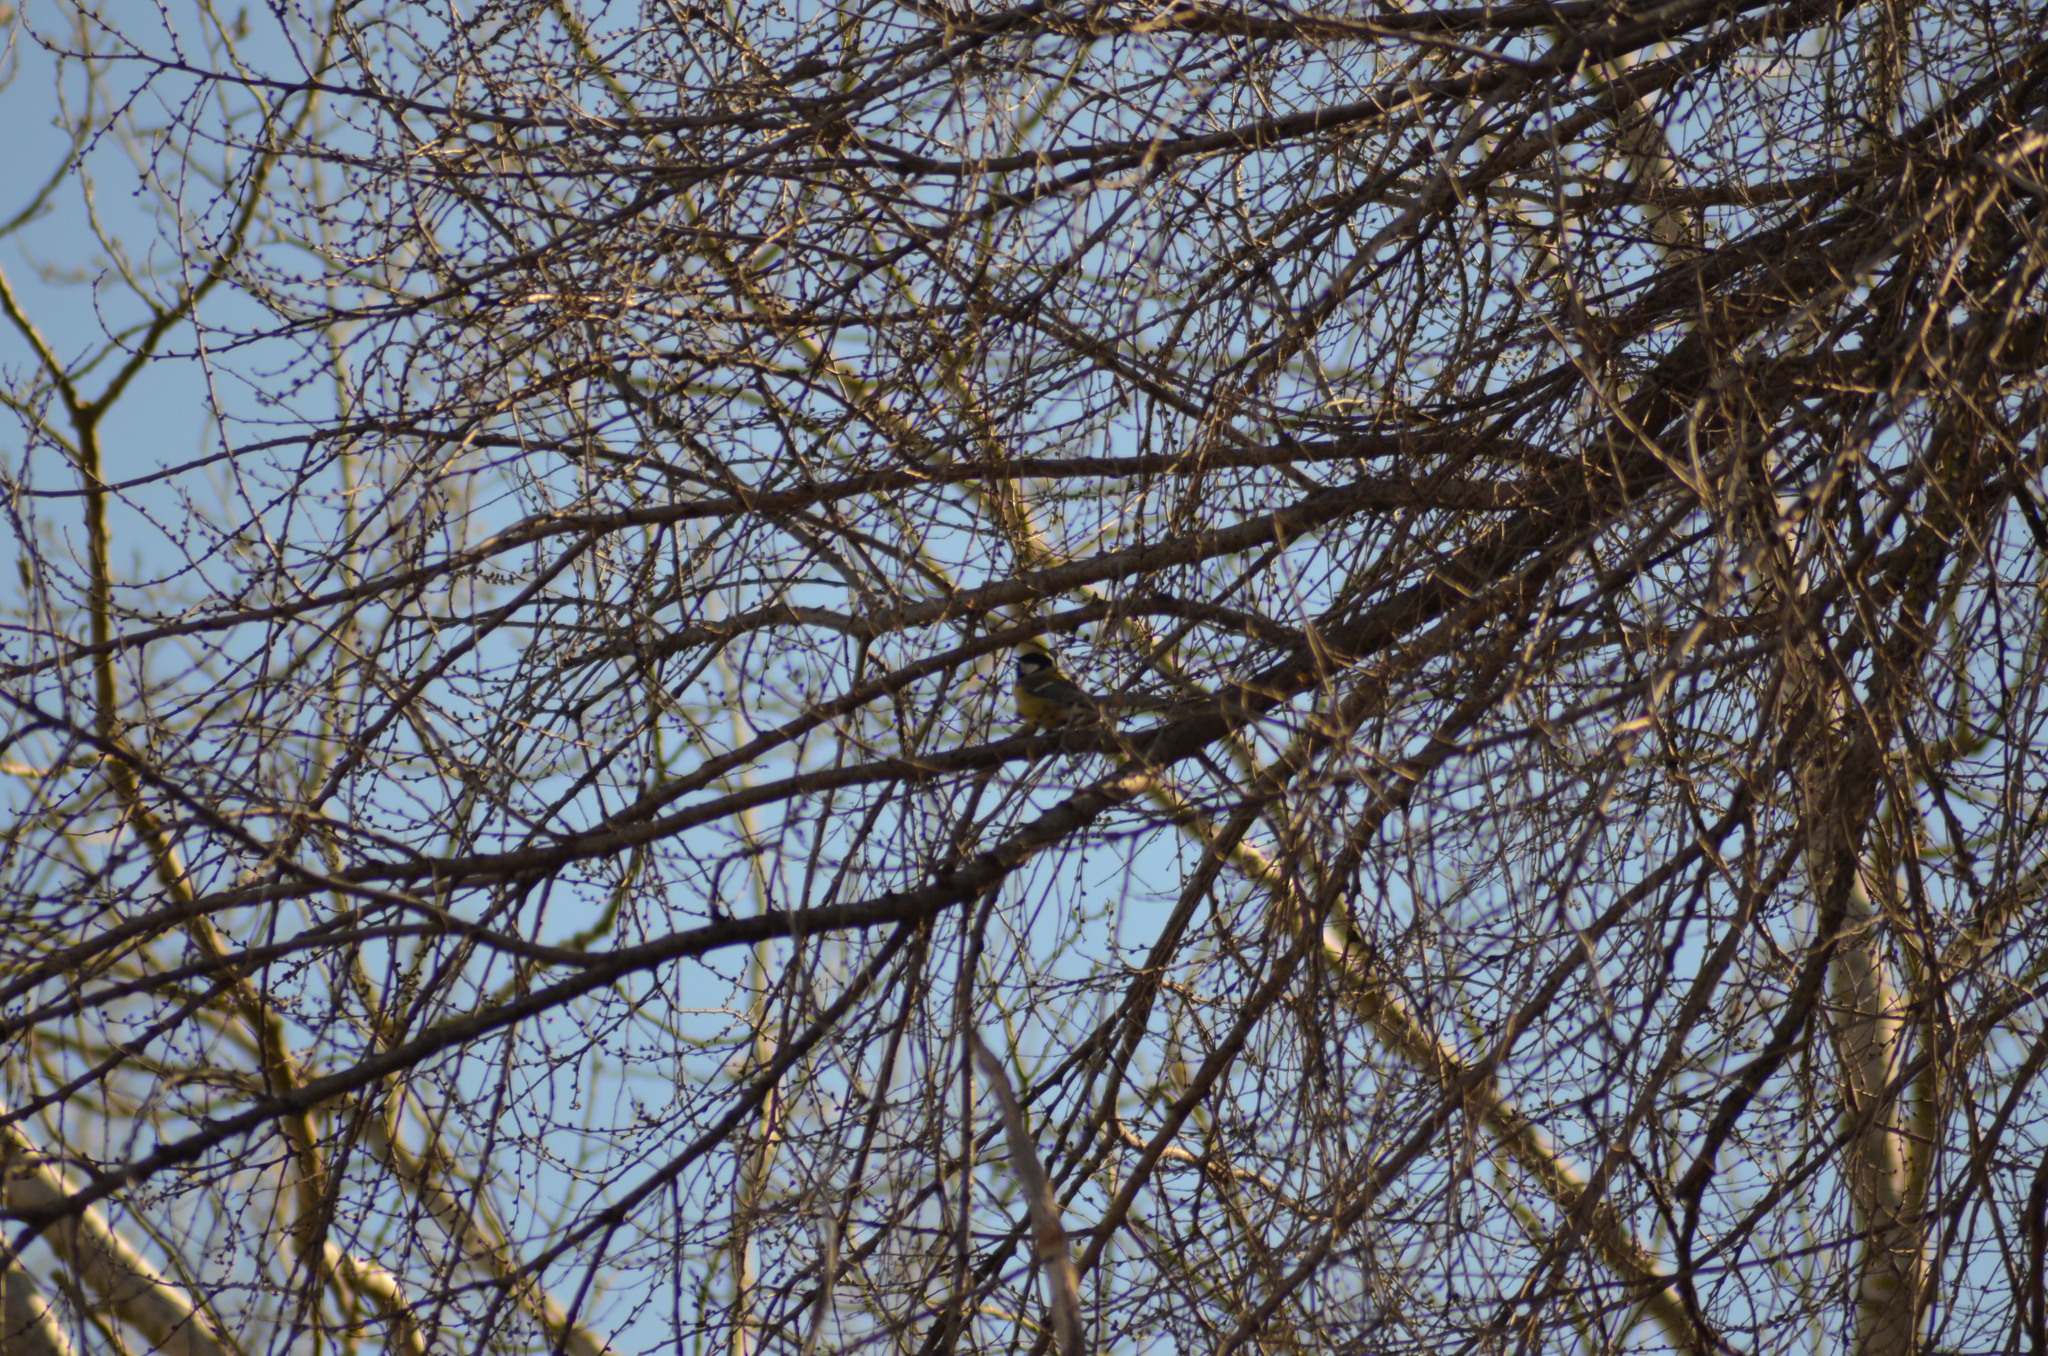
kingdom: Animalia
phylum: Chordata
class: Aves
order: Passeriformes
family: Paridae
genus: Parus
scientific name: Parus major
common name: Great tit
